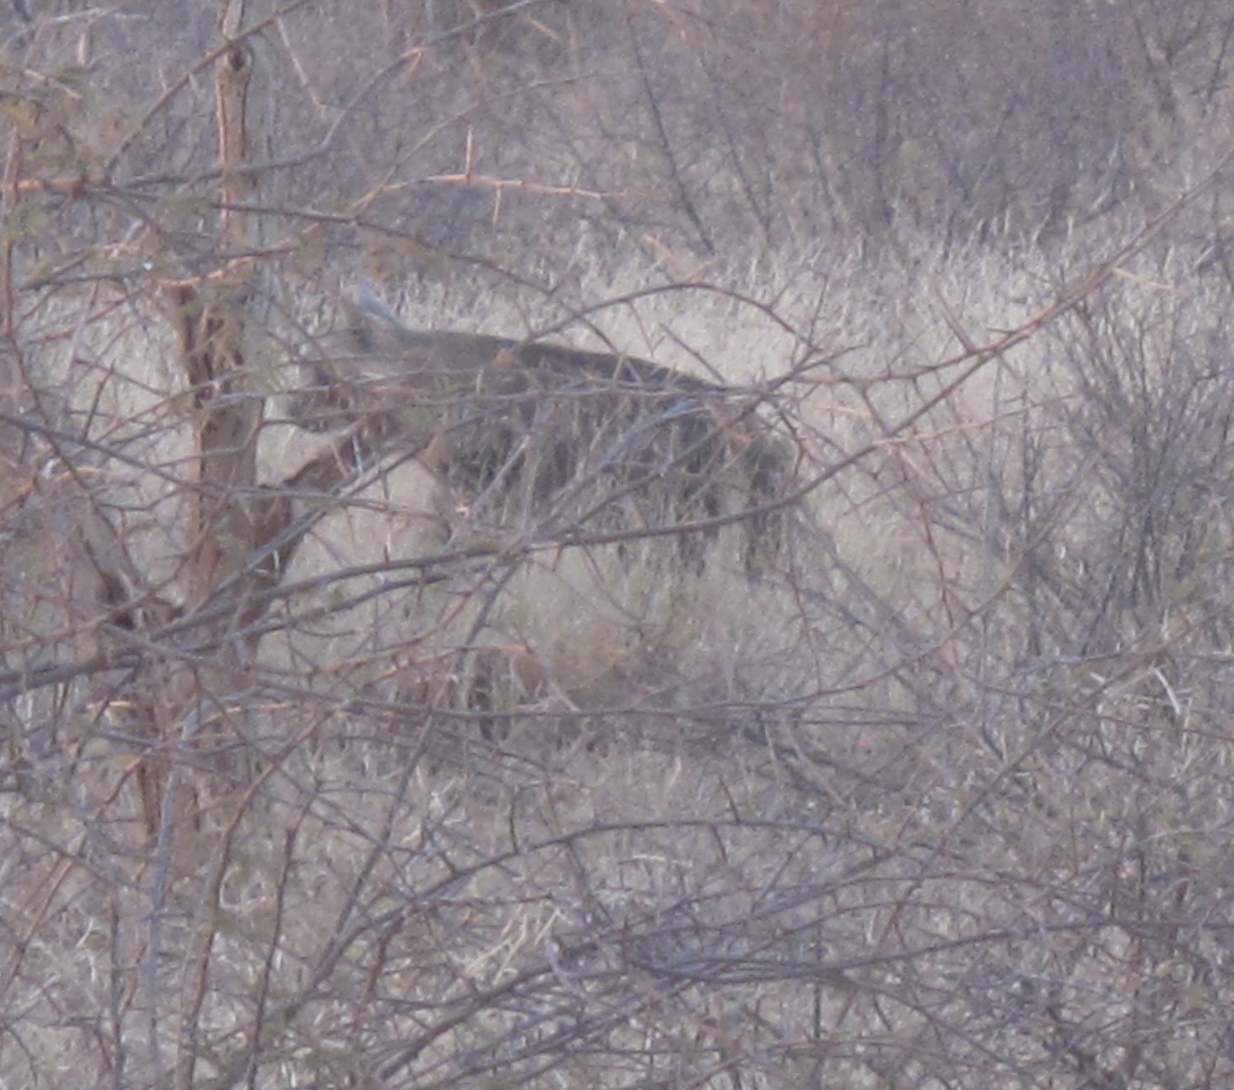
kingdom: Animalia
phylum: Chordata
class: Mammalia
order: Carnivora
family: Hyaenidae
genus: Hyaena
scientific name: Hyaena brunnea
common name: Brown hyena
